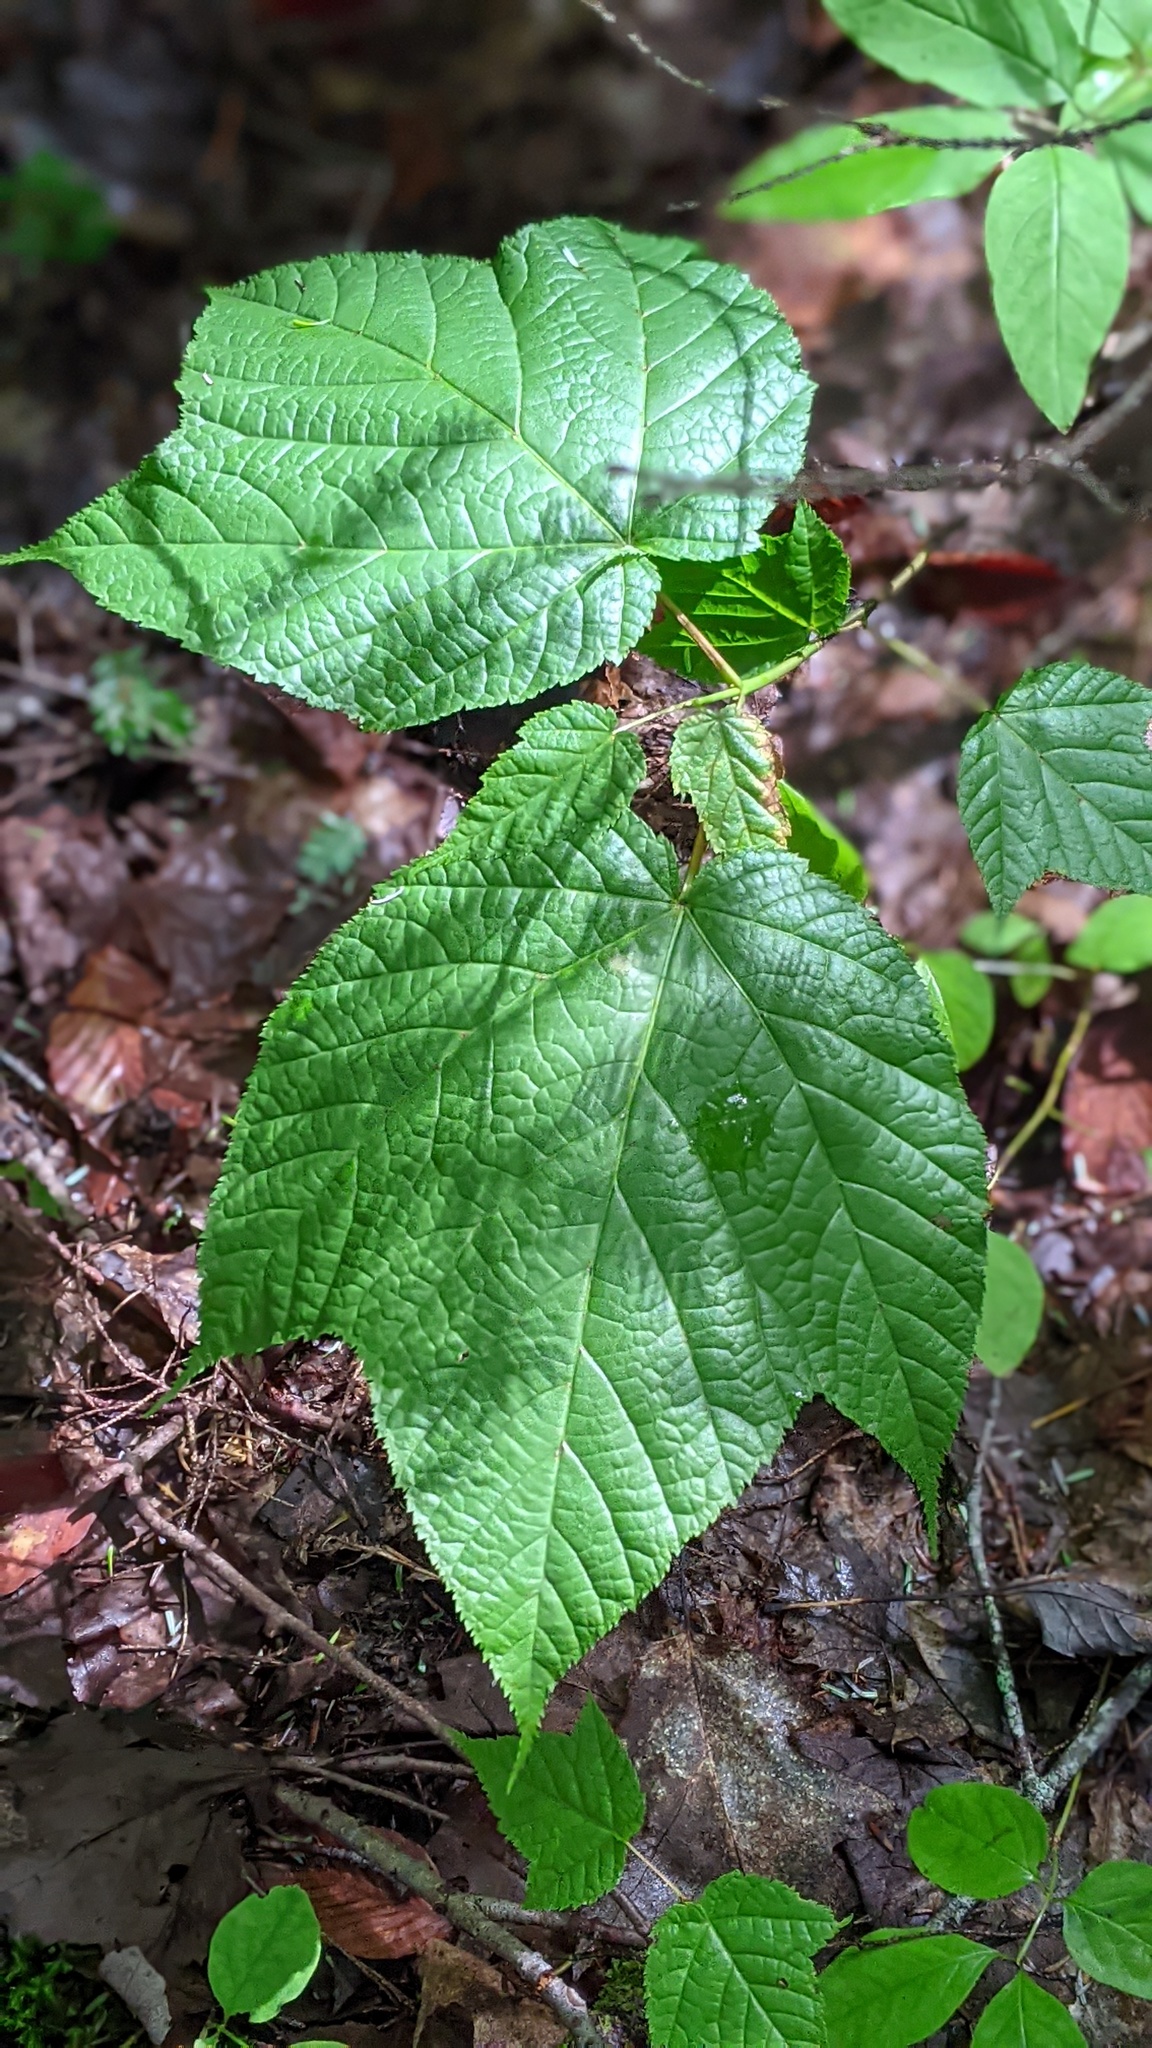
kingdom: Plantae
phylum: Tracheophyta
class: Magnoliopsida
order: Sapindales
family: Sapindaceae
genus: Acer
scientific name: Acer pensylvanicum
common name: Moosewood
